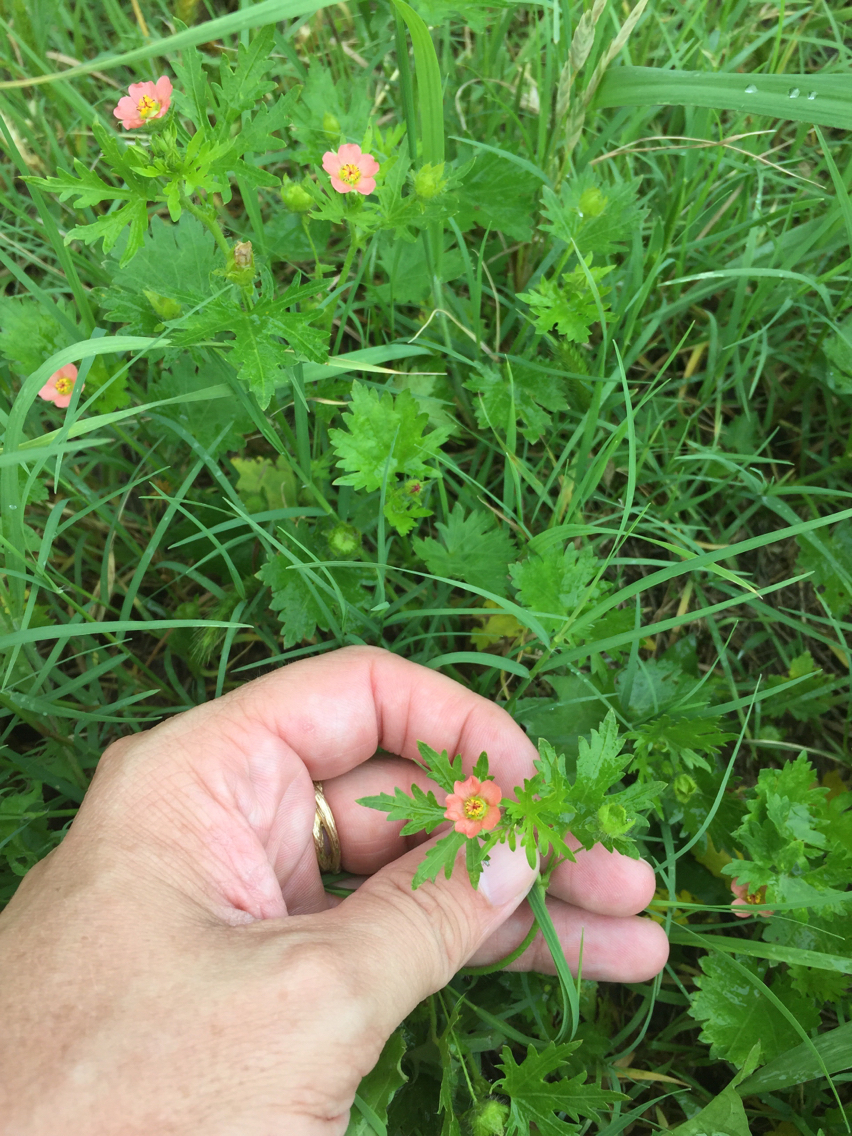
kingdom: Plantae
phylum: Tracheophyta
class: Magnoliopsida
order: Malvales
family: Malvaceae
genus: Modiola
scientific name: Modiola caroliniana
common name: Carolina bristlemallow
